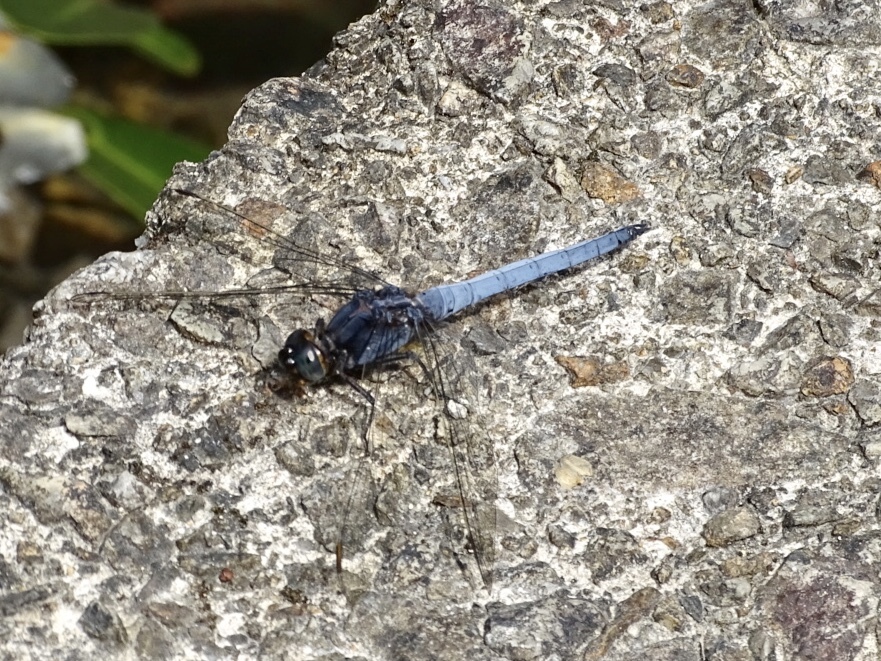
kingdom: Animalia
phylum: Arthropoda
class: Insecta
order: Odonata
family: Libellulidae
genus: Orthetrum
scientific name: Orthetrum glaucum
